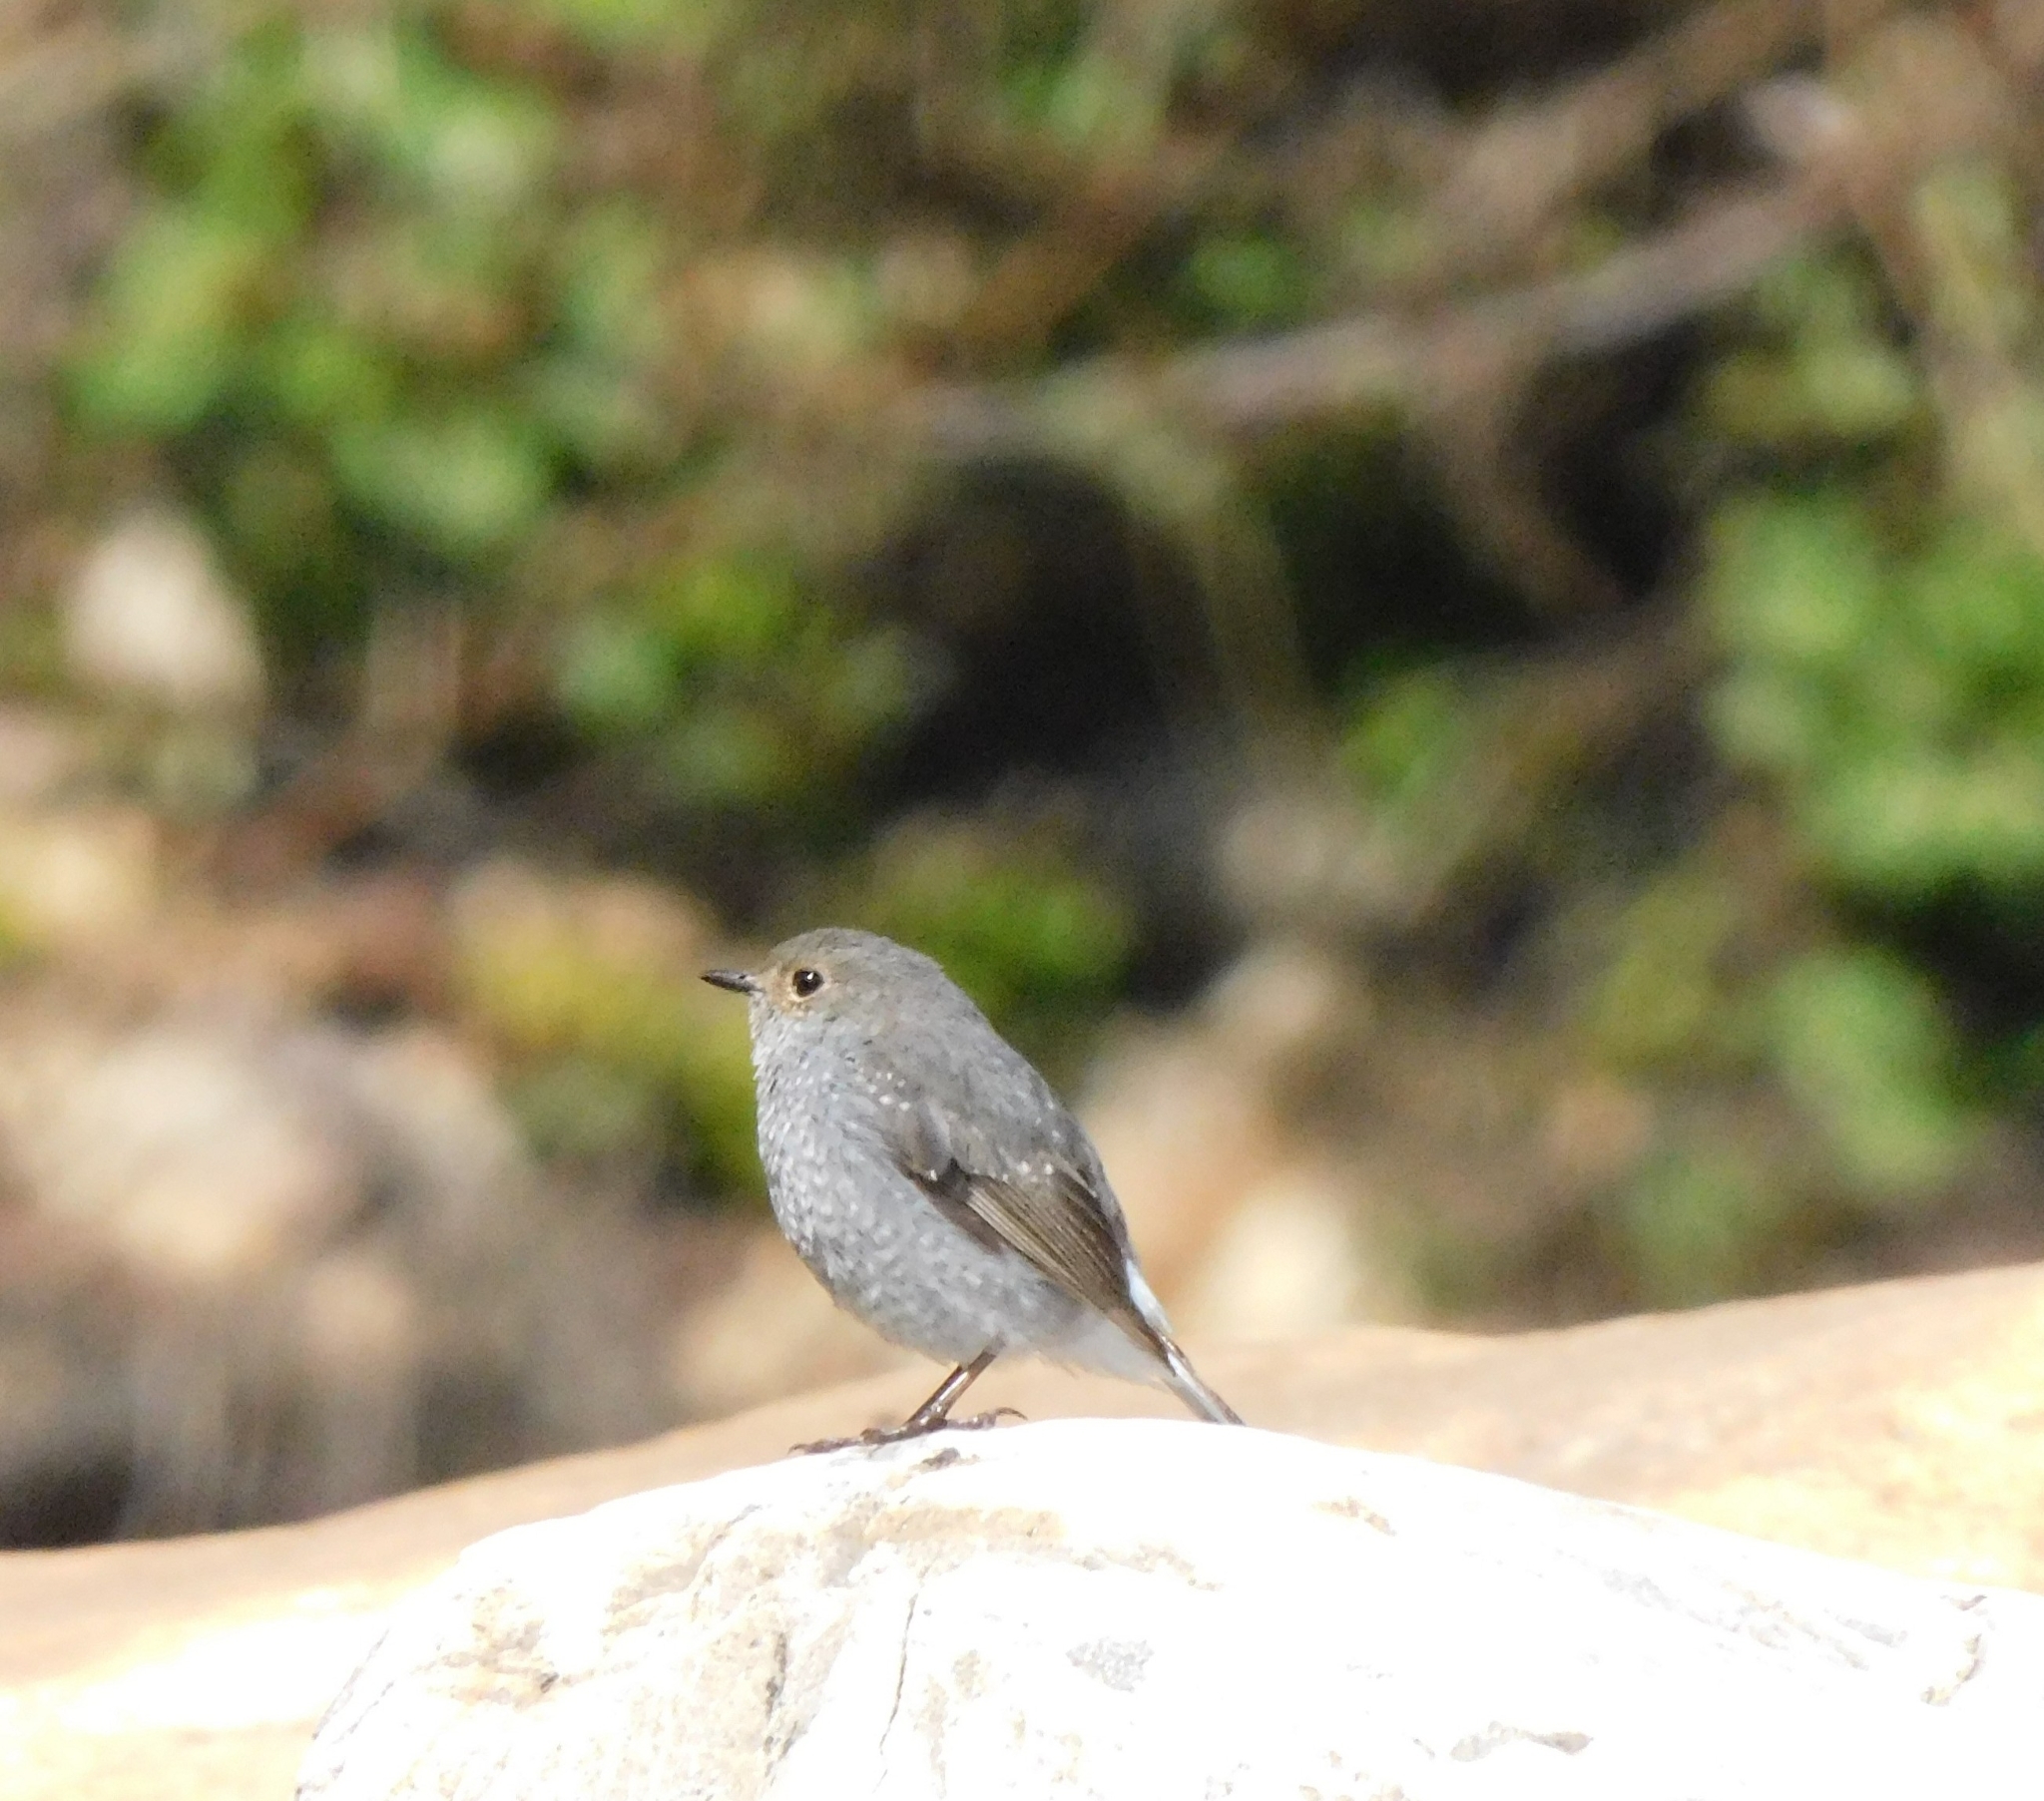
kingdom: Animalia
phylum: Chordata
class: Aves
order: Passeriformes
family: Muscicapidae
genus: Phoenicurus
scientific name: Phoenicurus fuliginosus
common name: Plumbeous water redstart
